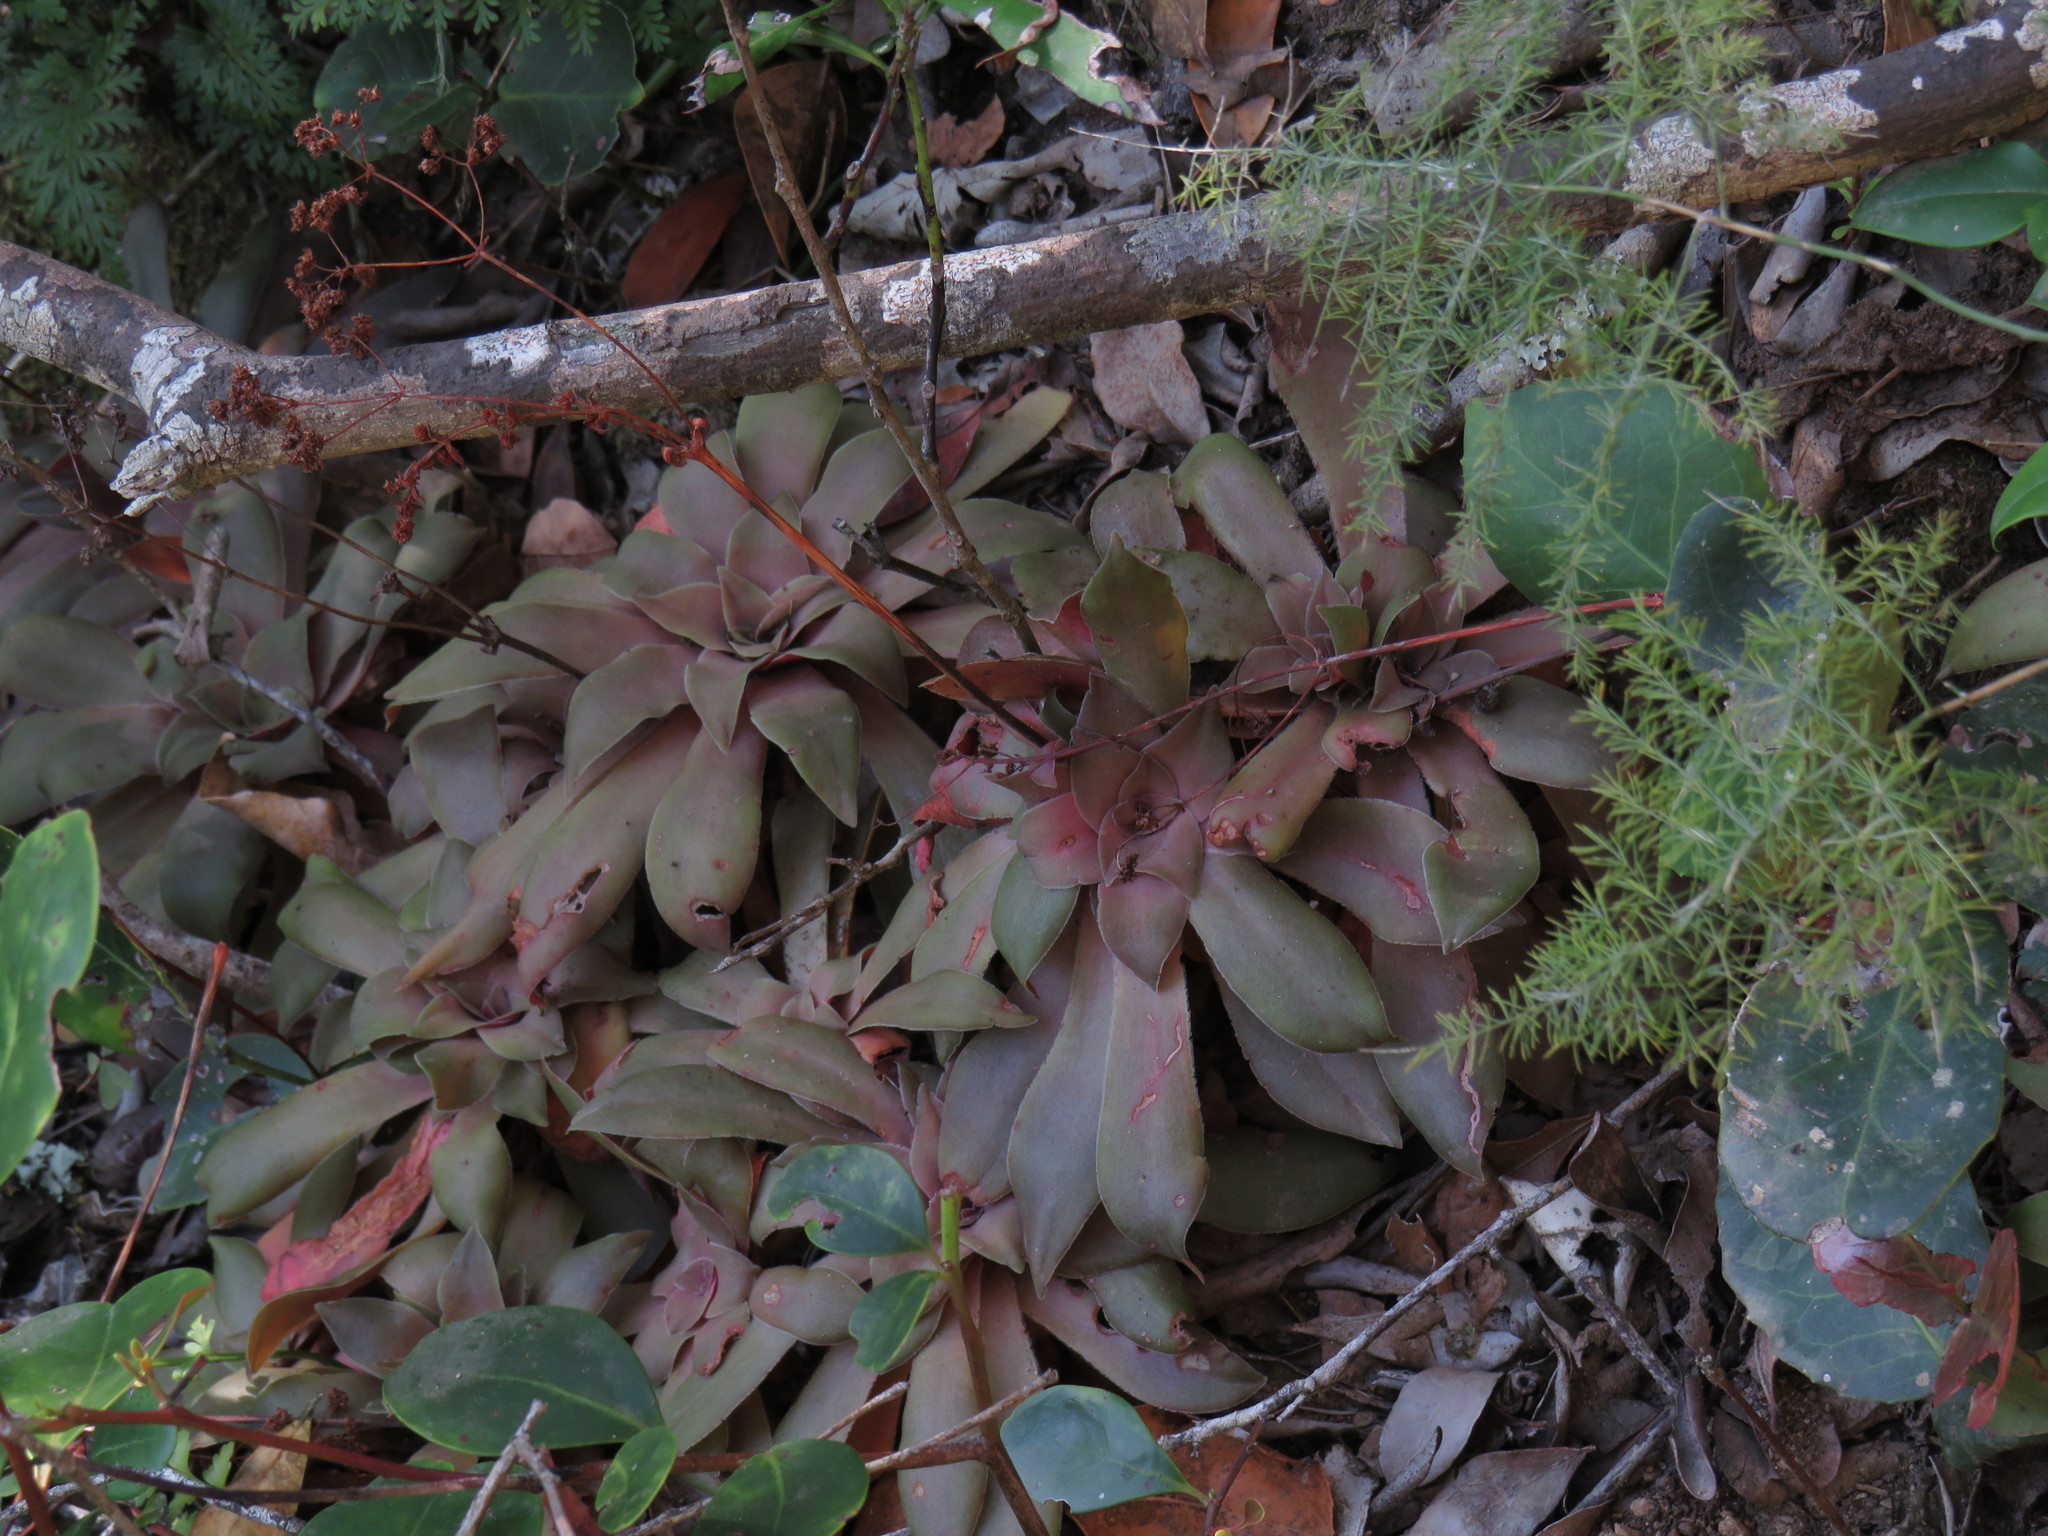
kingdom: Plantae
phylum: Tracheophyta
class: Magnoliopsida
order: Saxifragales
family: Crassulaceae
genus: Crassula
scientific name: Crassula orbicularis
